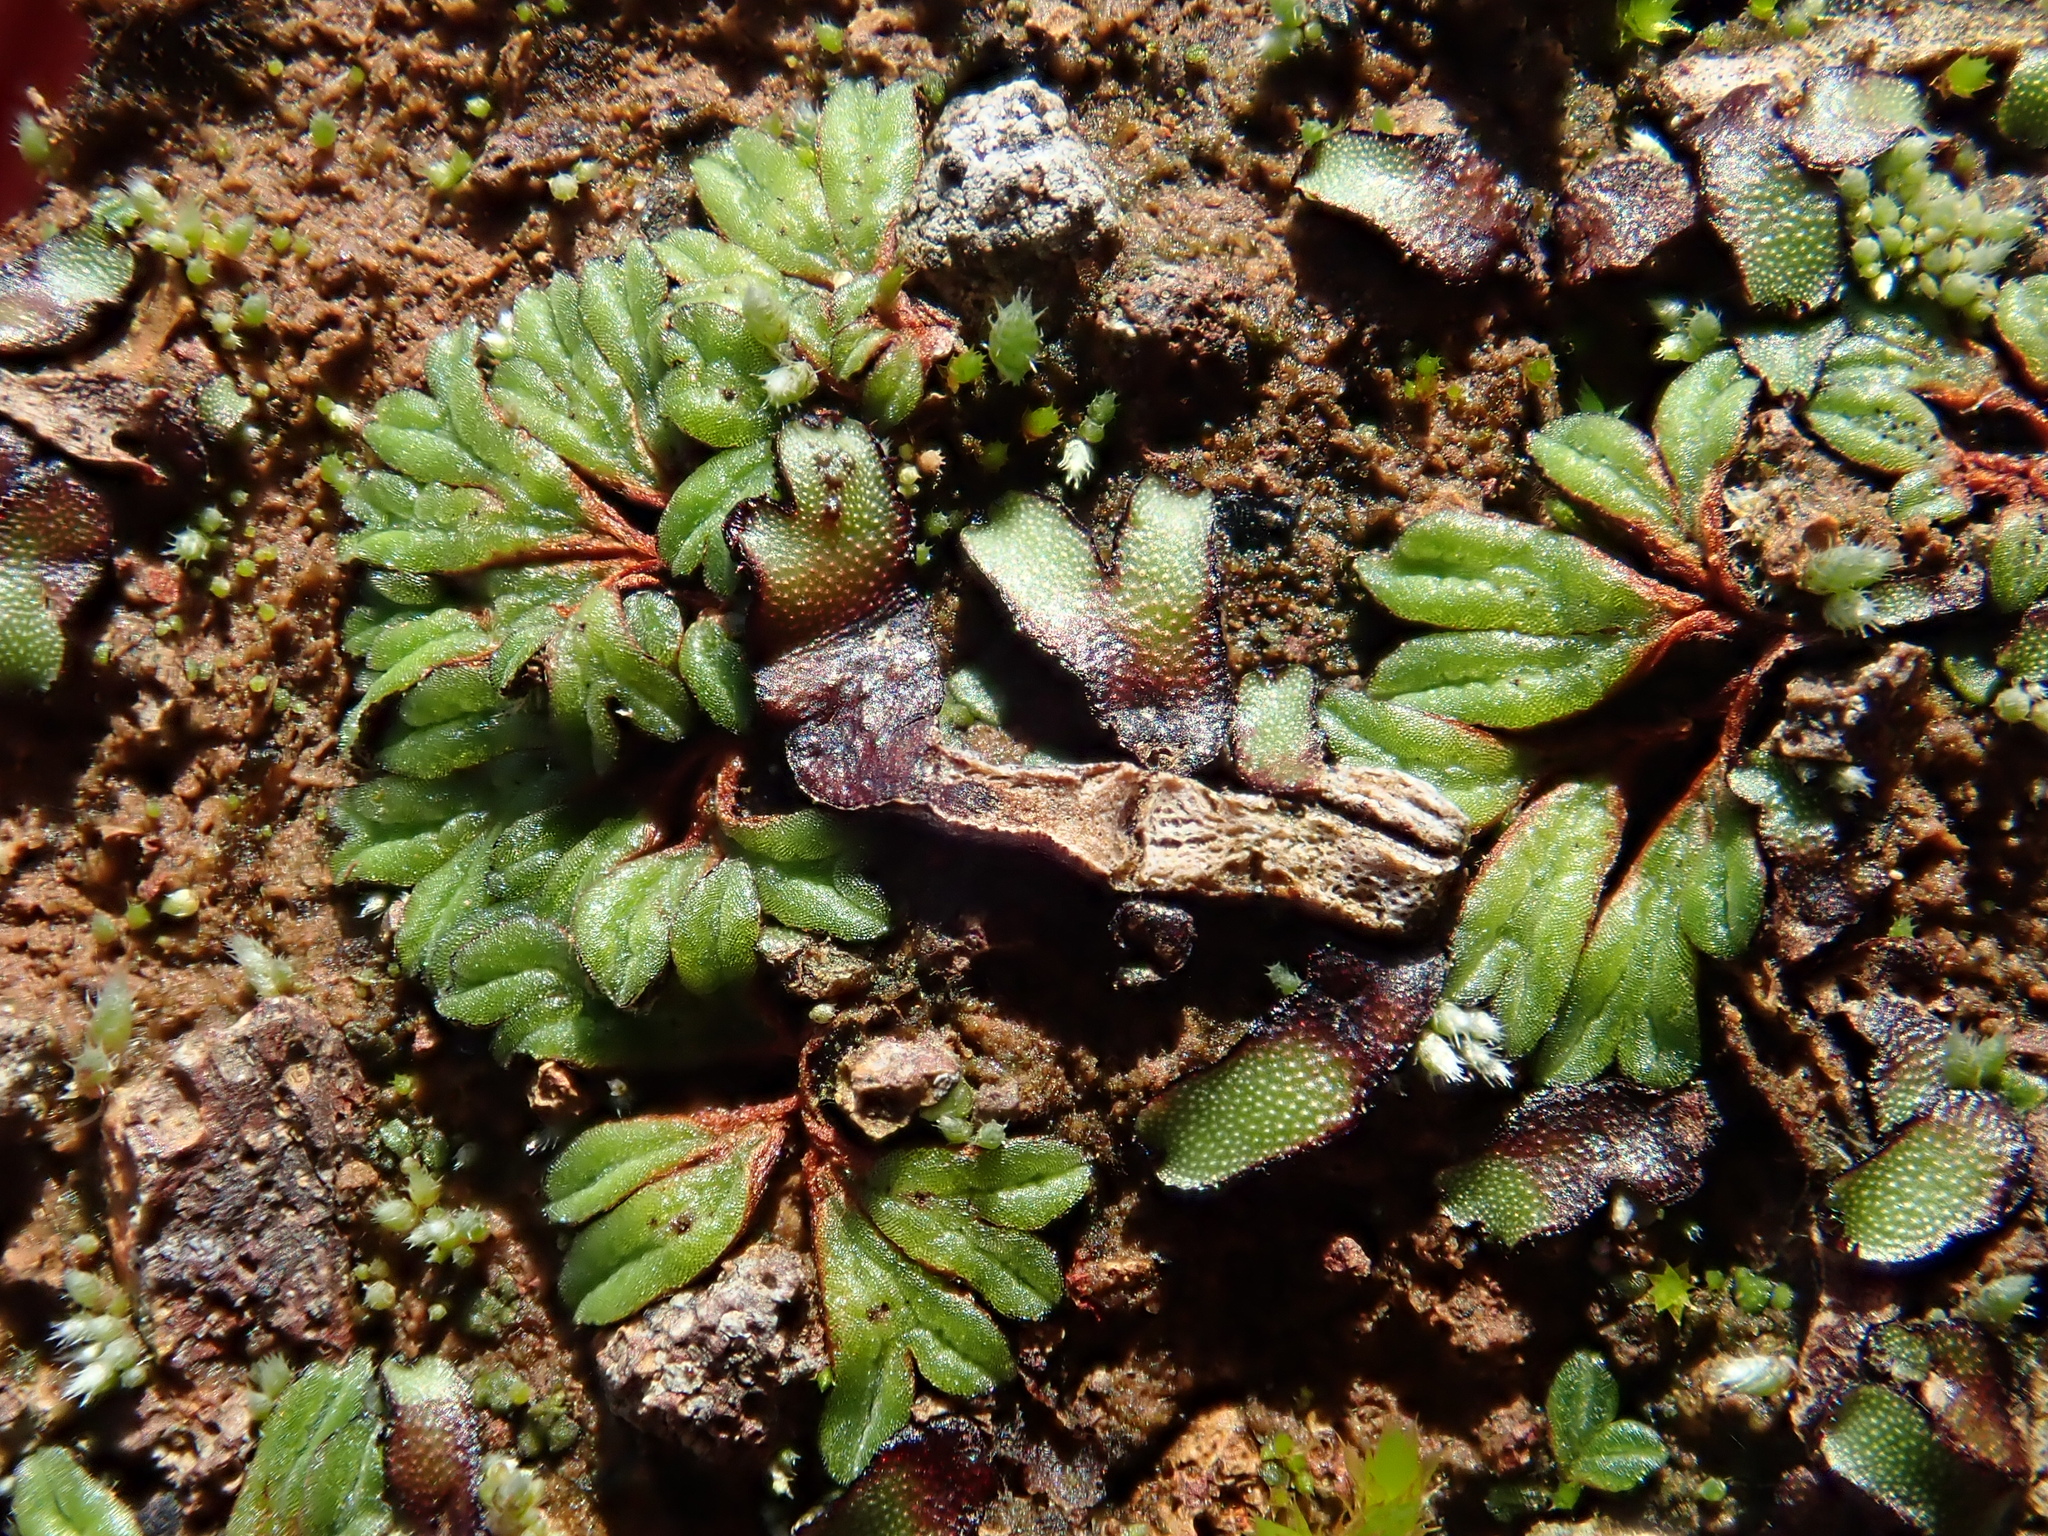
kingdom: Plantae
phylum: Marchantiophyta
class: Marchantiopsida
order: Marchantiales
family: Ricciaceae
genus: Riccia
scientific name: Riccia nigrella
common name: Black crystalwort
